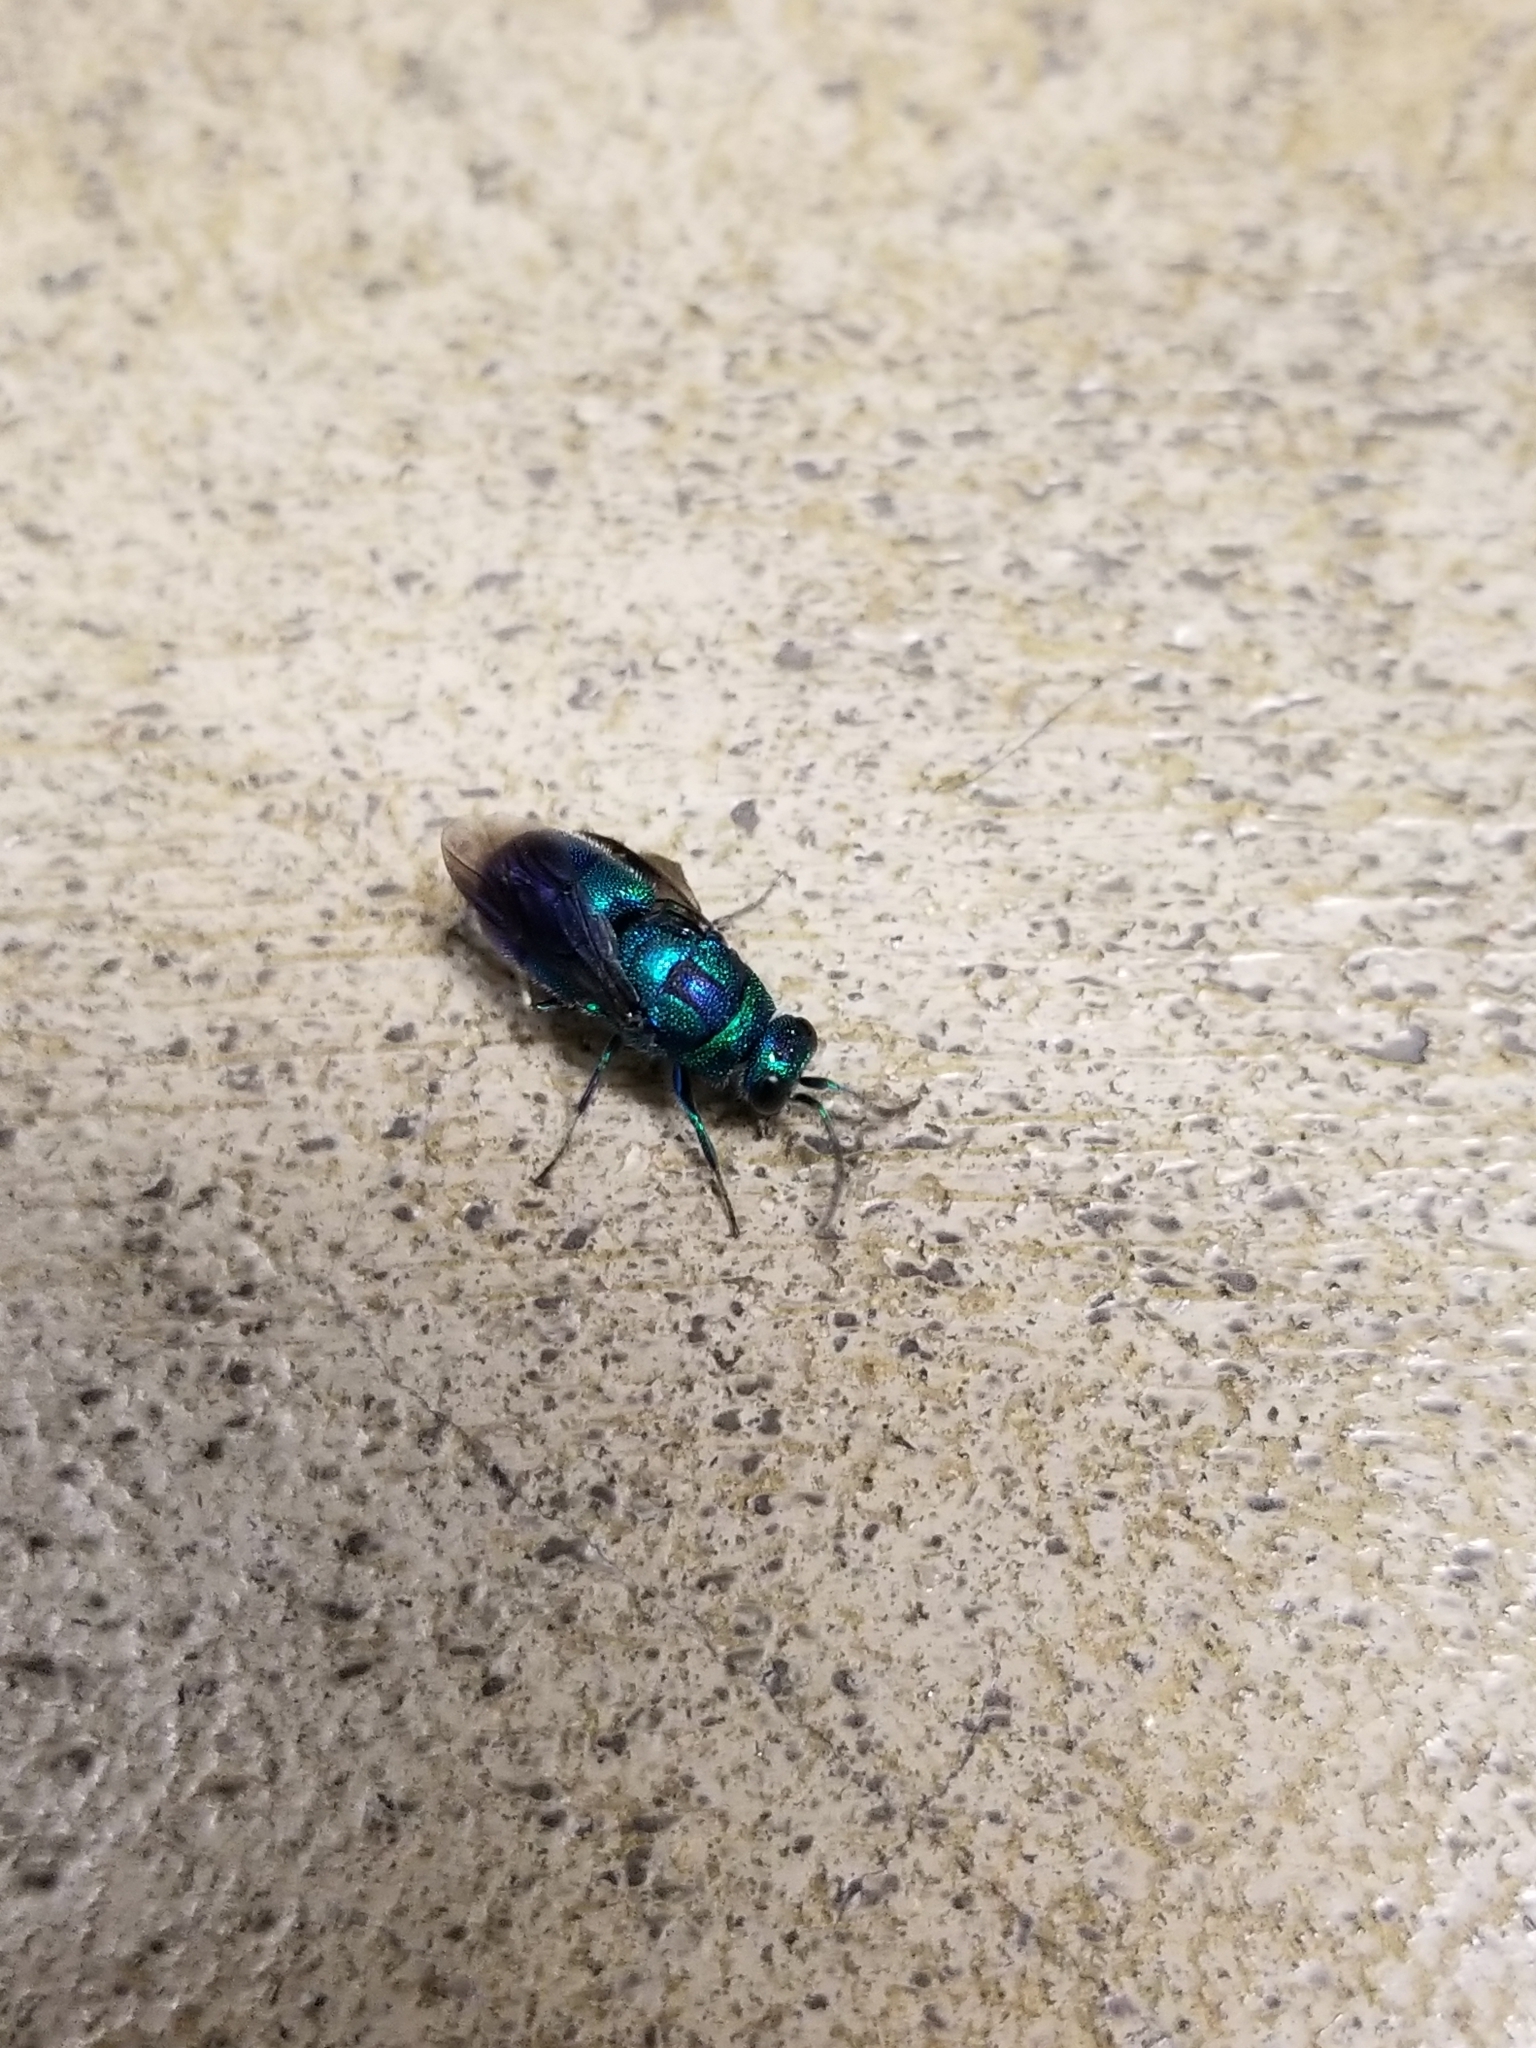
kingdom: Animalia
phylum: Arthropoda
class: Insecta
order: Hymenoptera
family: Chrysididae
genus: Chrysis
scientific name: Chrysis angolensis
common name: Cuckoo wasp
